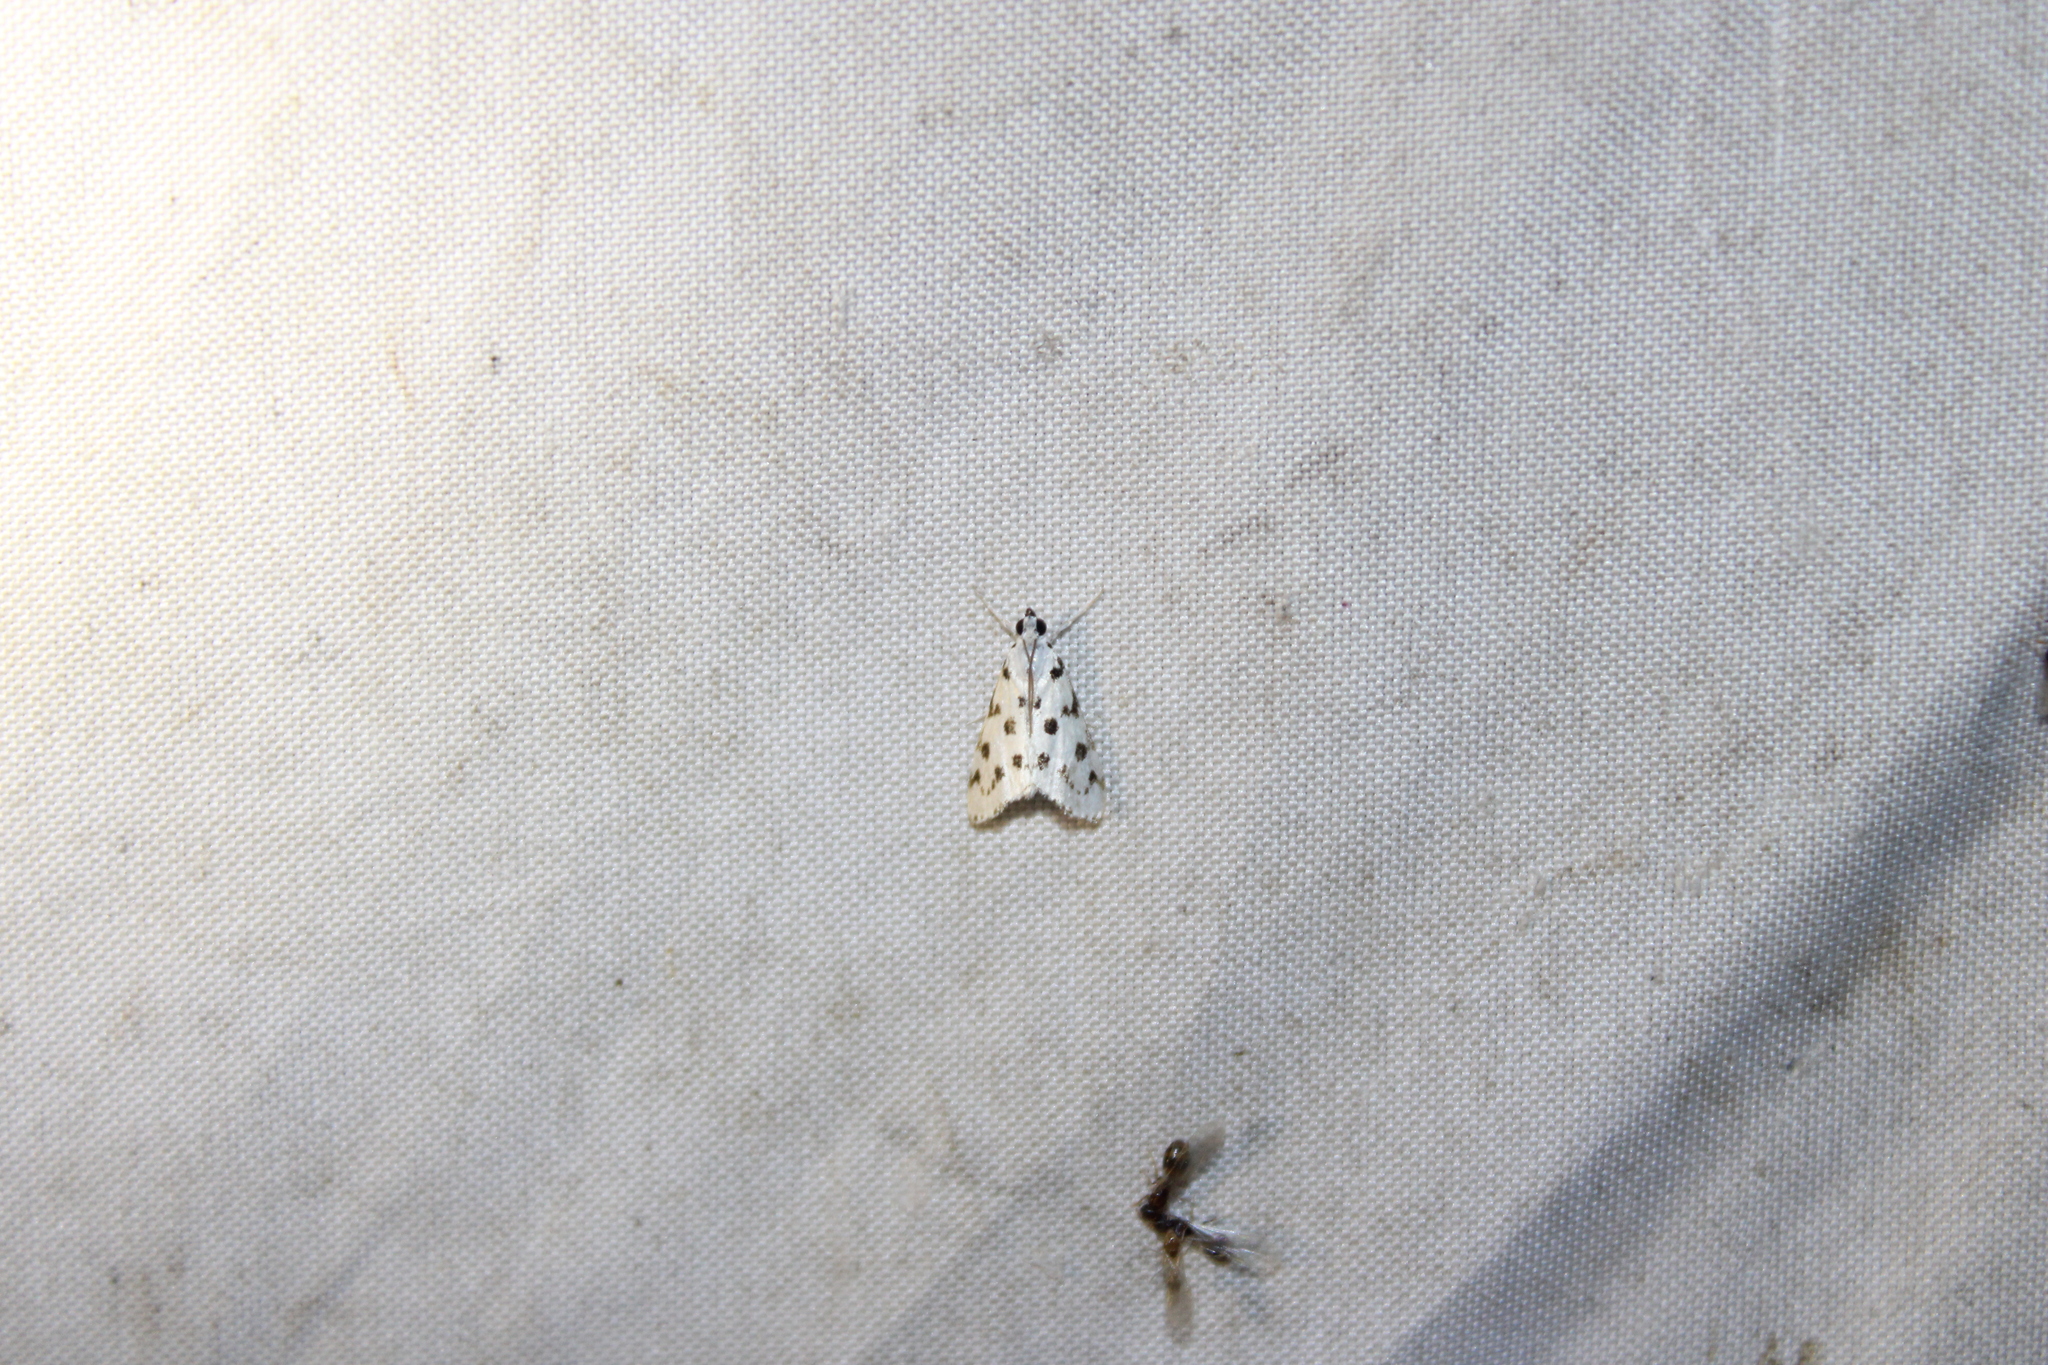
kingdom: Animalia
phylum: Arthropoda
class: Insecta
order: Lepidoptera
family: Crambidae
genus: Eustixia
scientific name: Eustixia pupula
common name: American cabbage pearl
